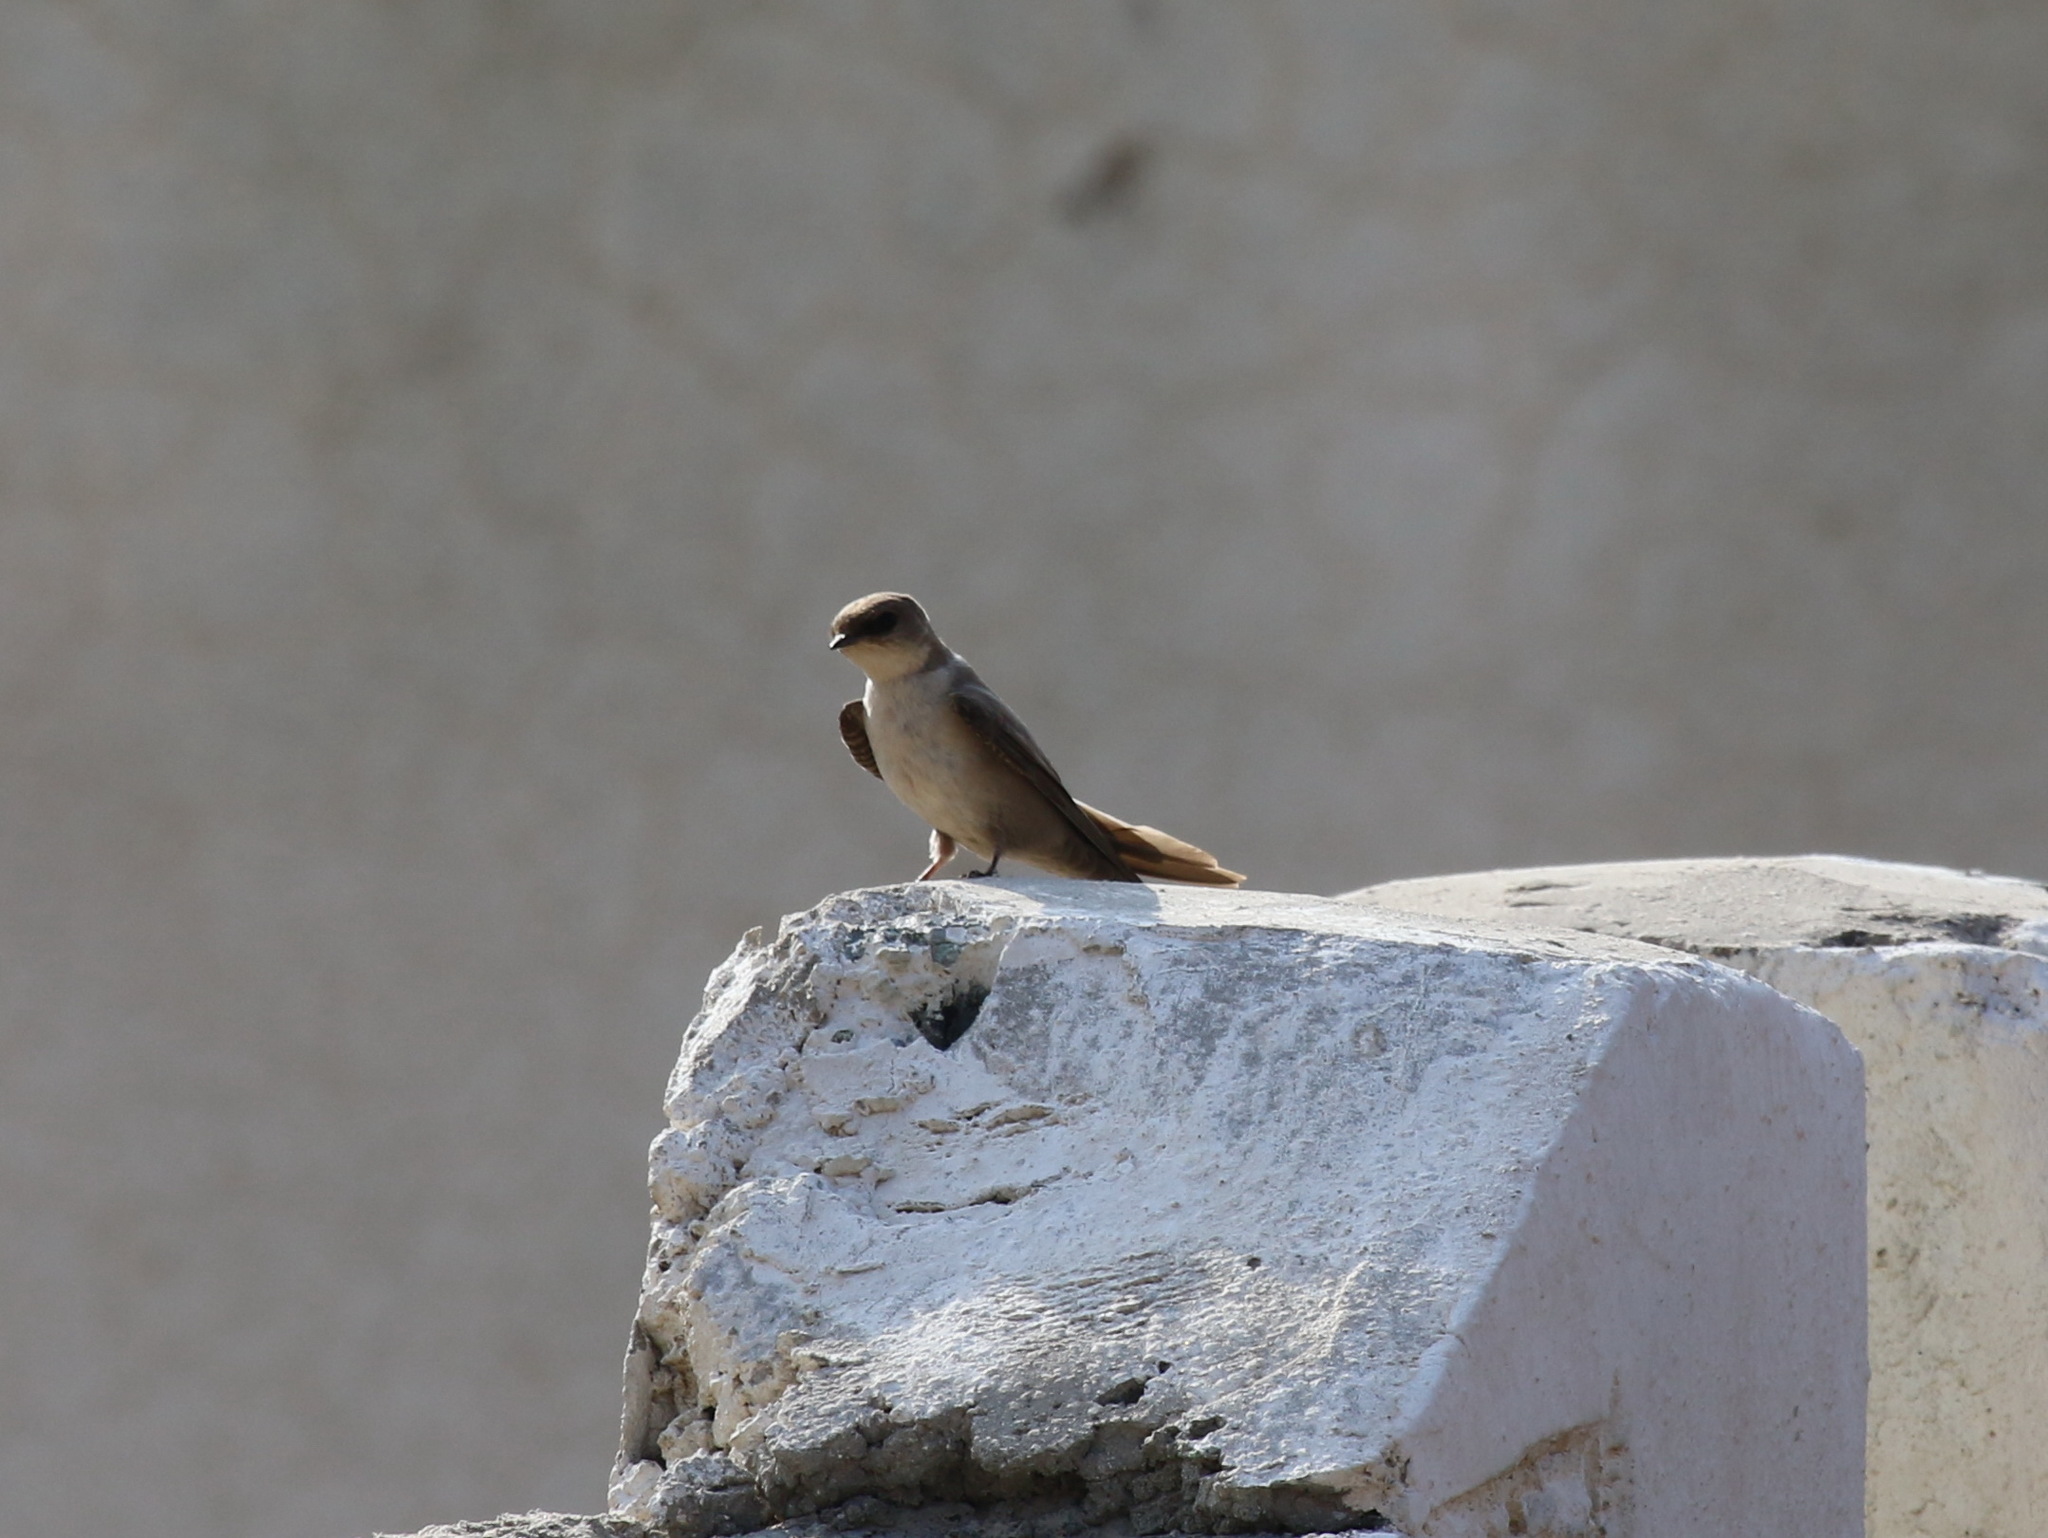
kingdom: Animalia
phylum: Chordata
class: Aves
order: Passeriformes
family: Hirundinidae
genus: Ptyonoprogne
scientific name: Ptyonoprogne fuligula
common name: Rock martin
